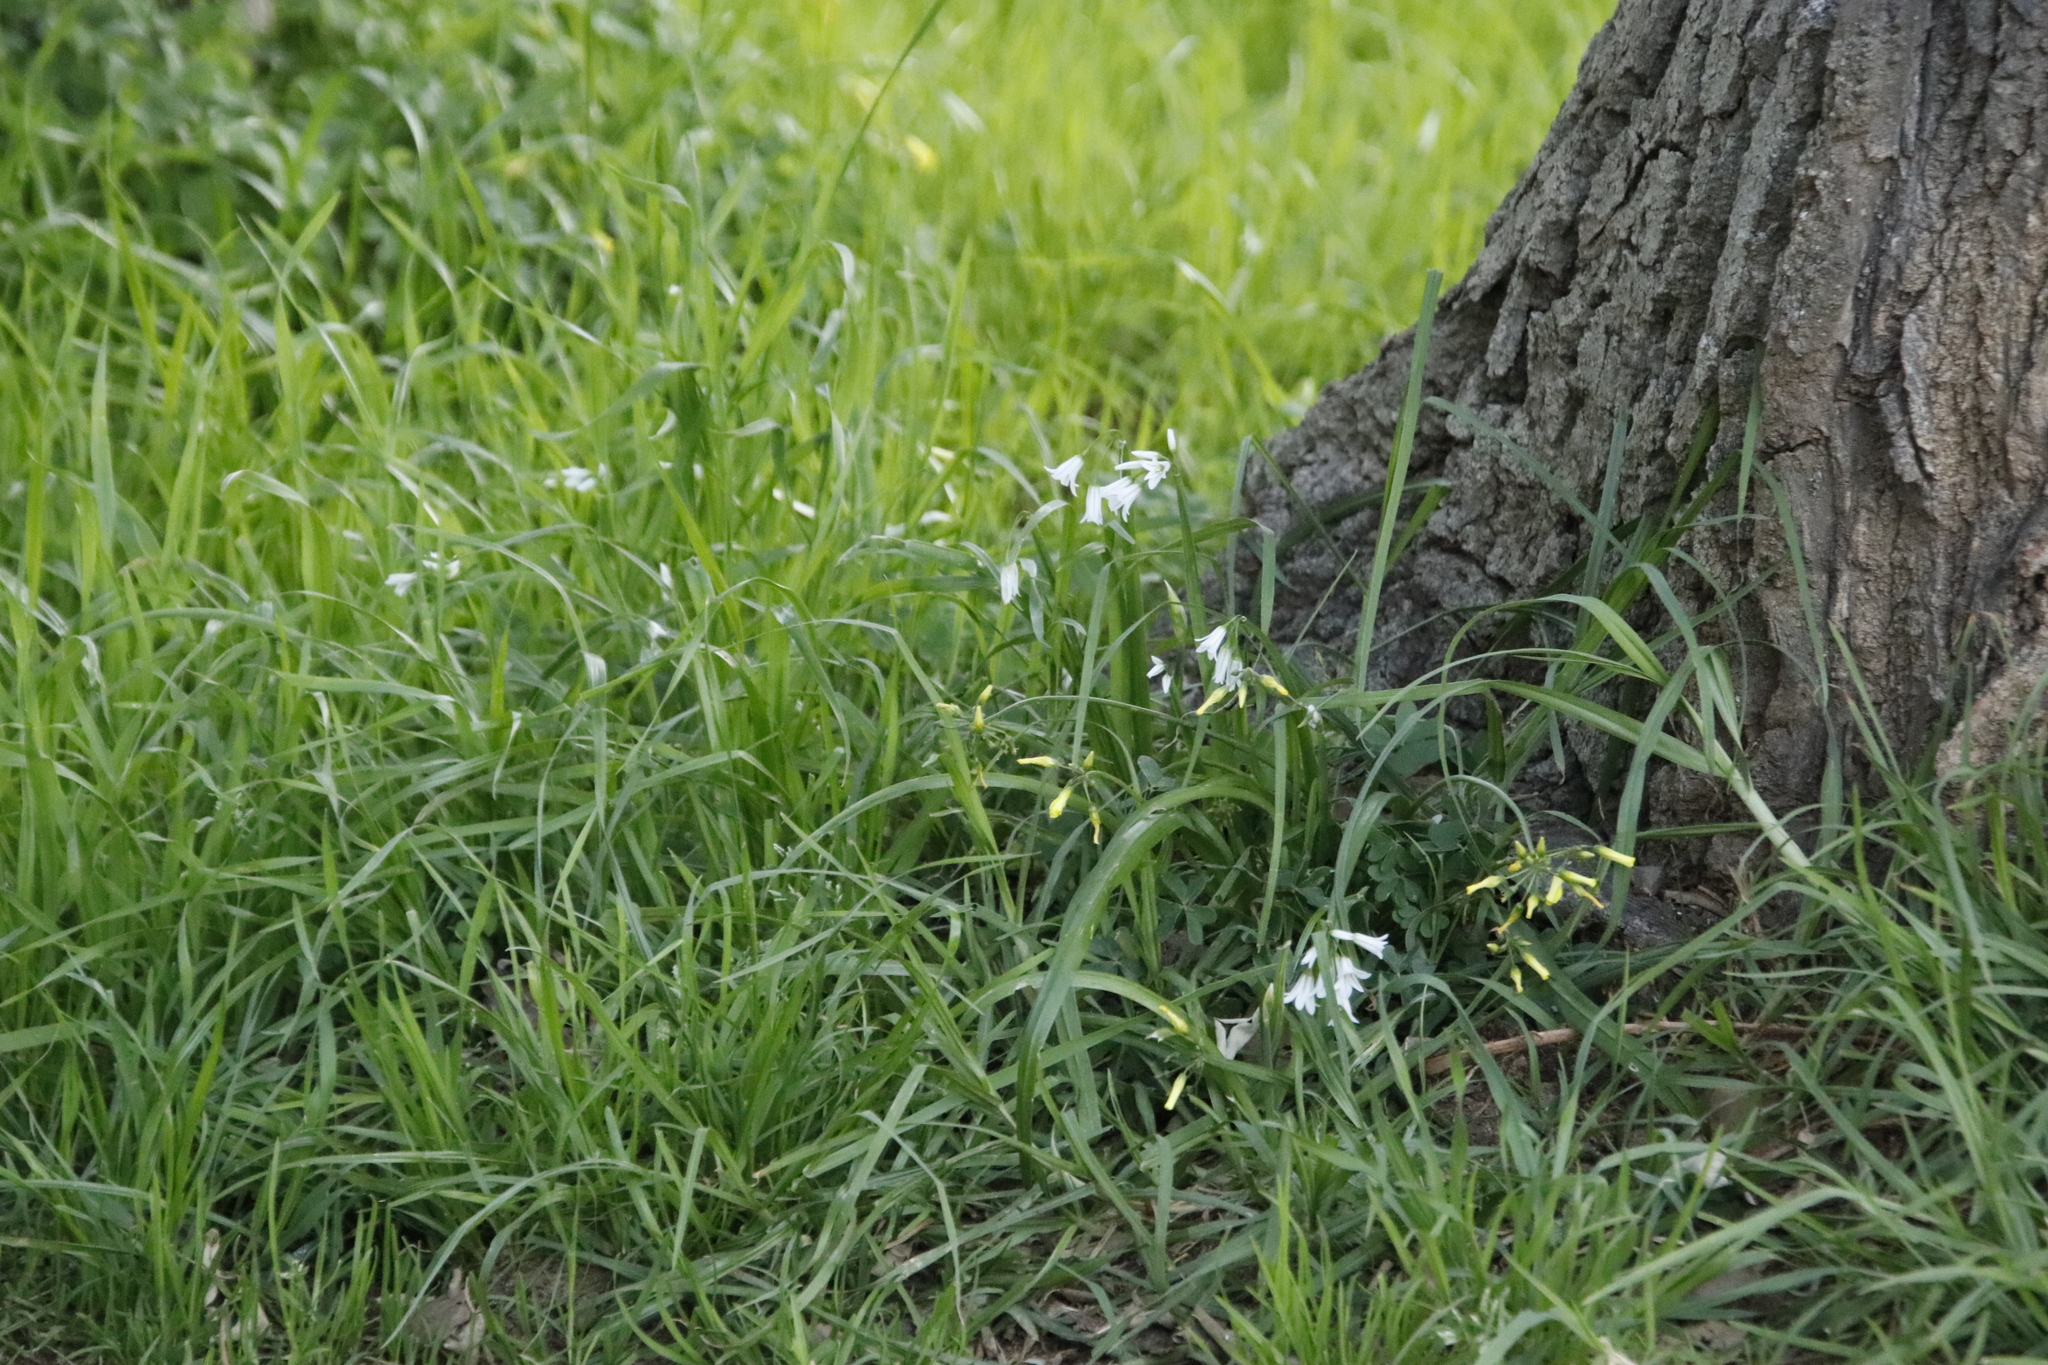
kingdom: Plantae
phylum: Tracheophyta
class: Liliopsida
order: Asparagales
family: Amaryllidaceae
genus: Allium
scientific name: Allium triquetrum
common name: Three-cornered garlic
